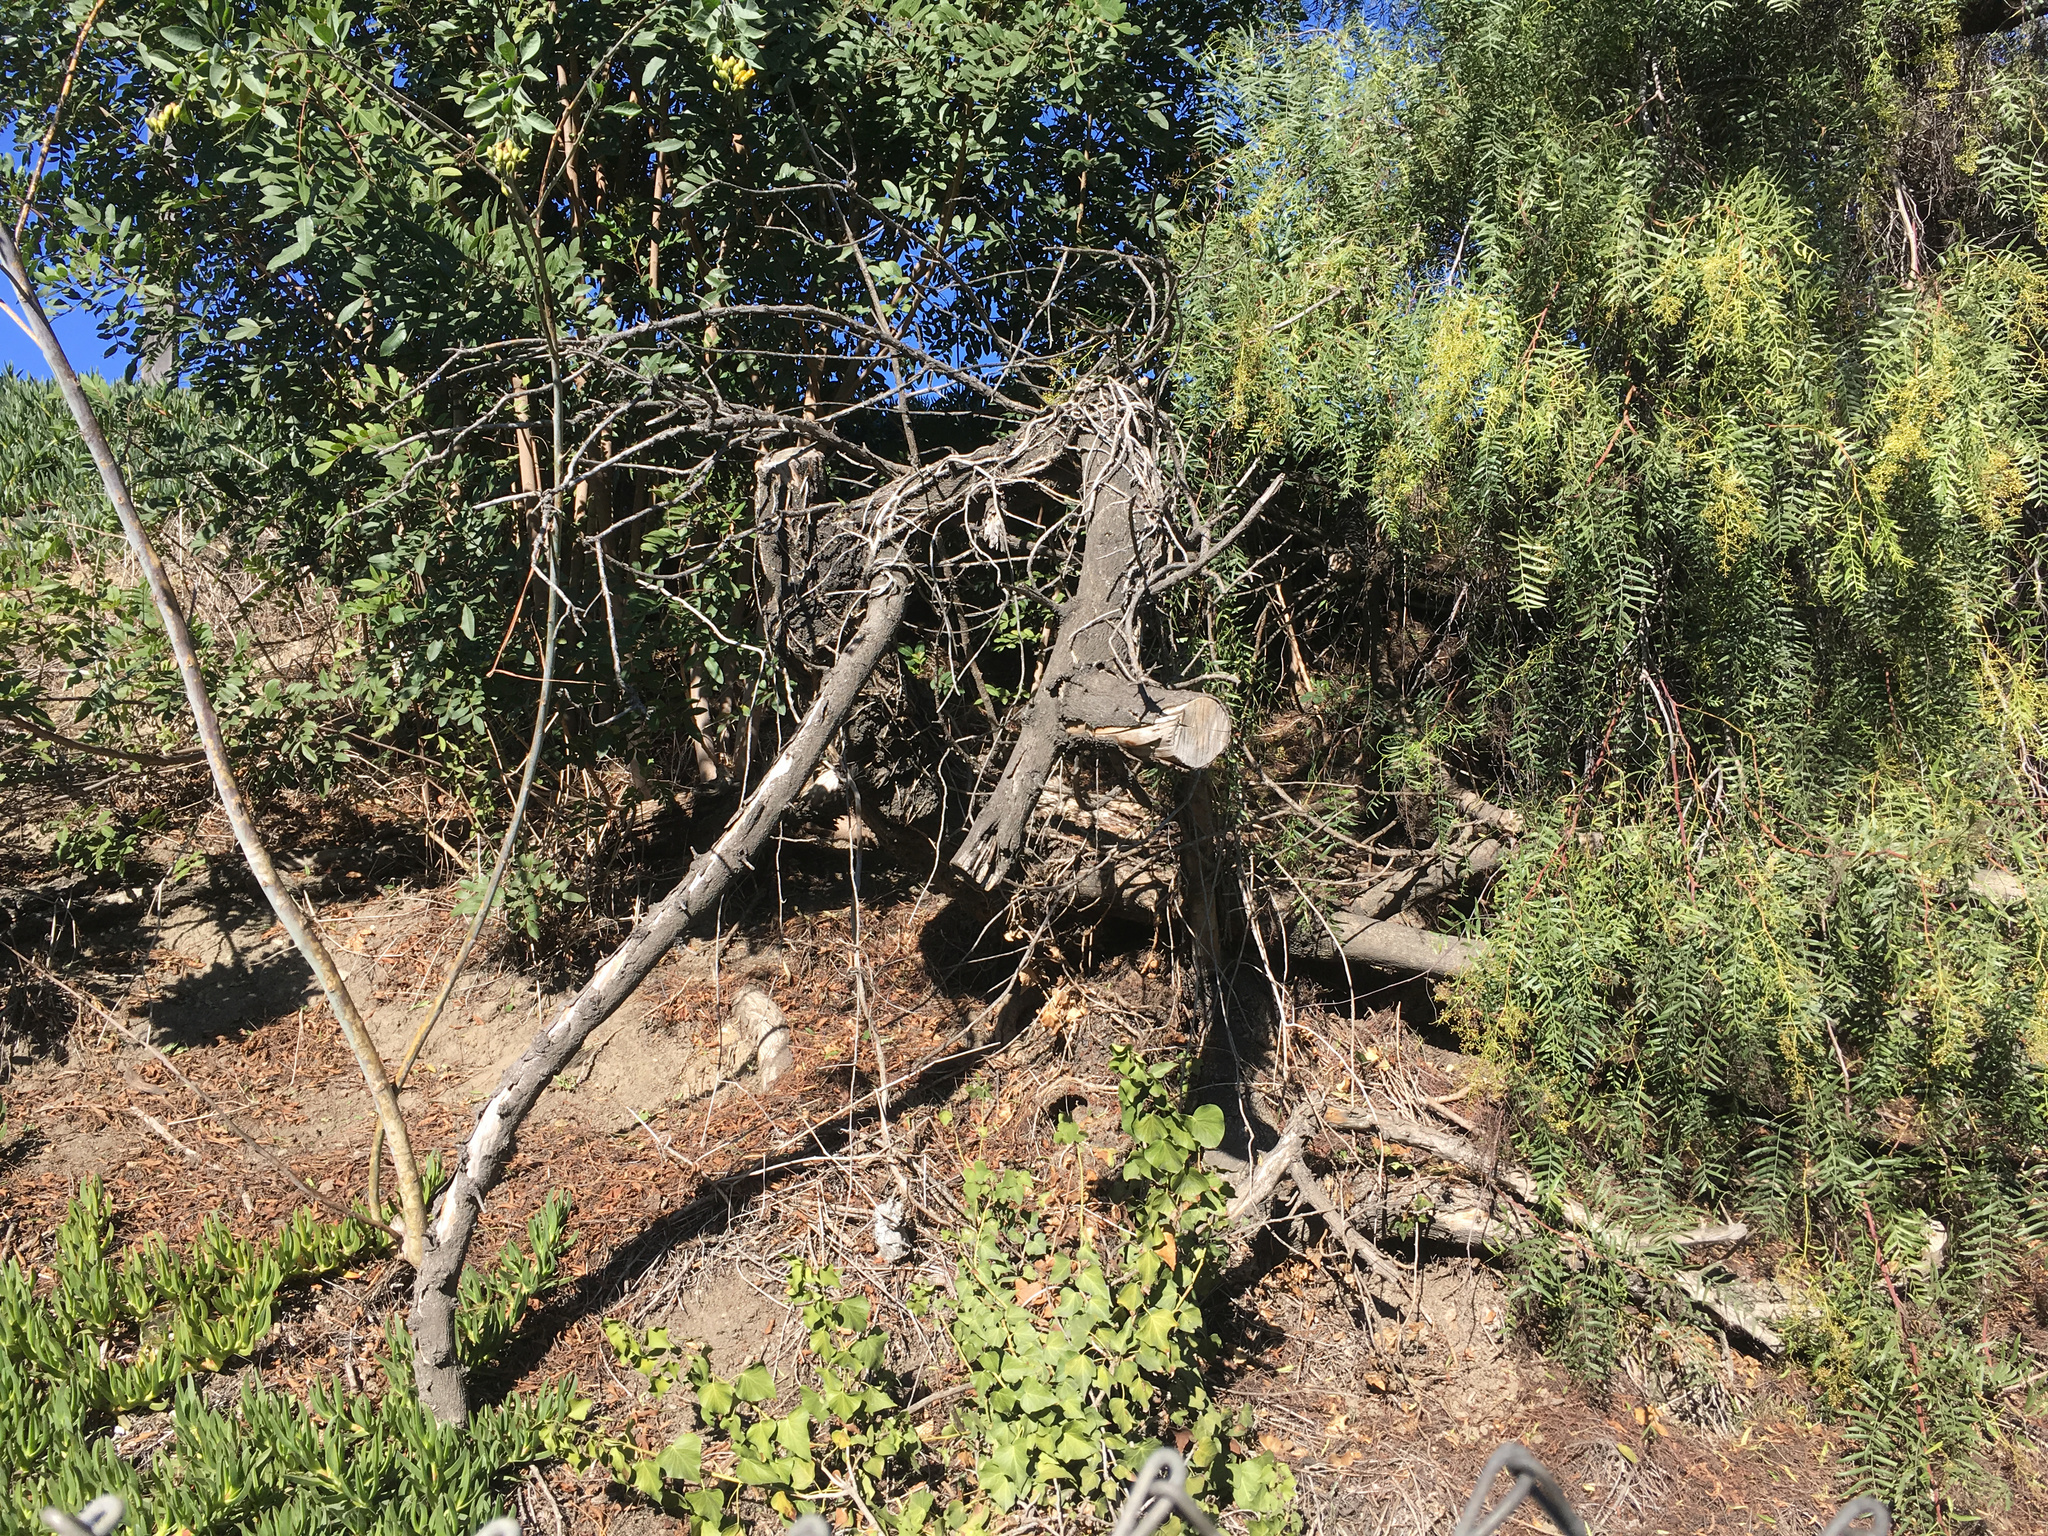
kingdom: Plantae
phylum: Tracheophyta
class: Magnoliopsida
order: Lamiales
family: Scrophulariaceae
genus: Myoporum
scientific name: Myoporum laetum
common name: Ngaio tree
